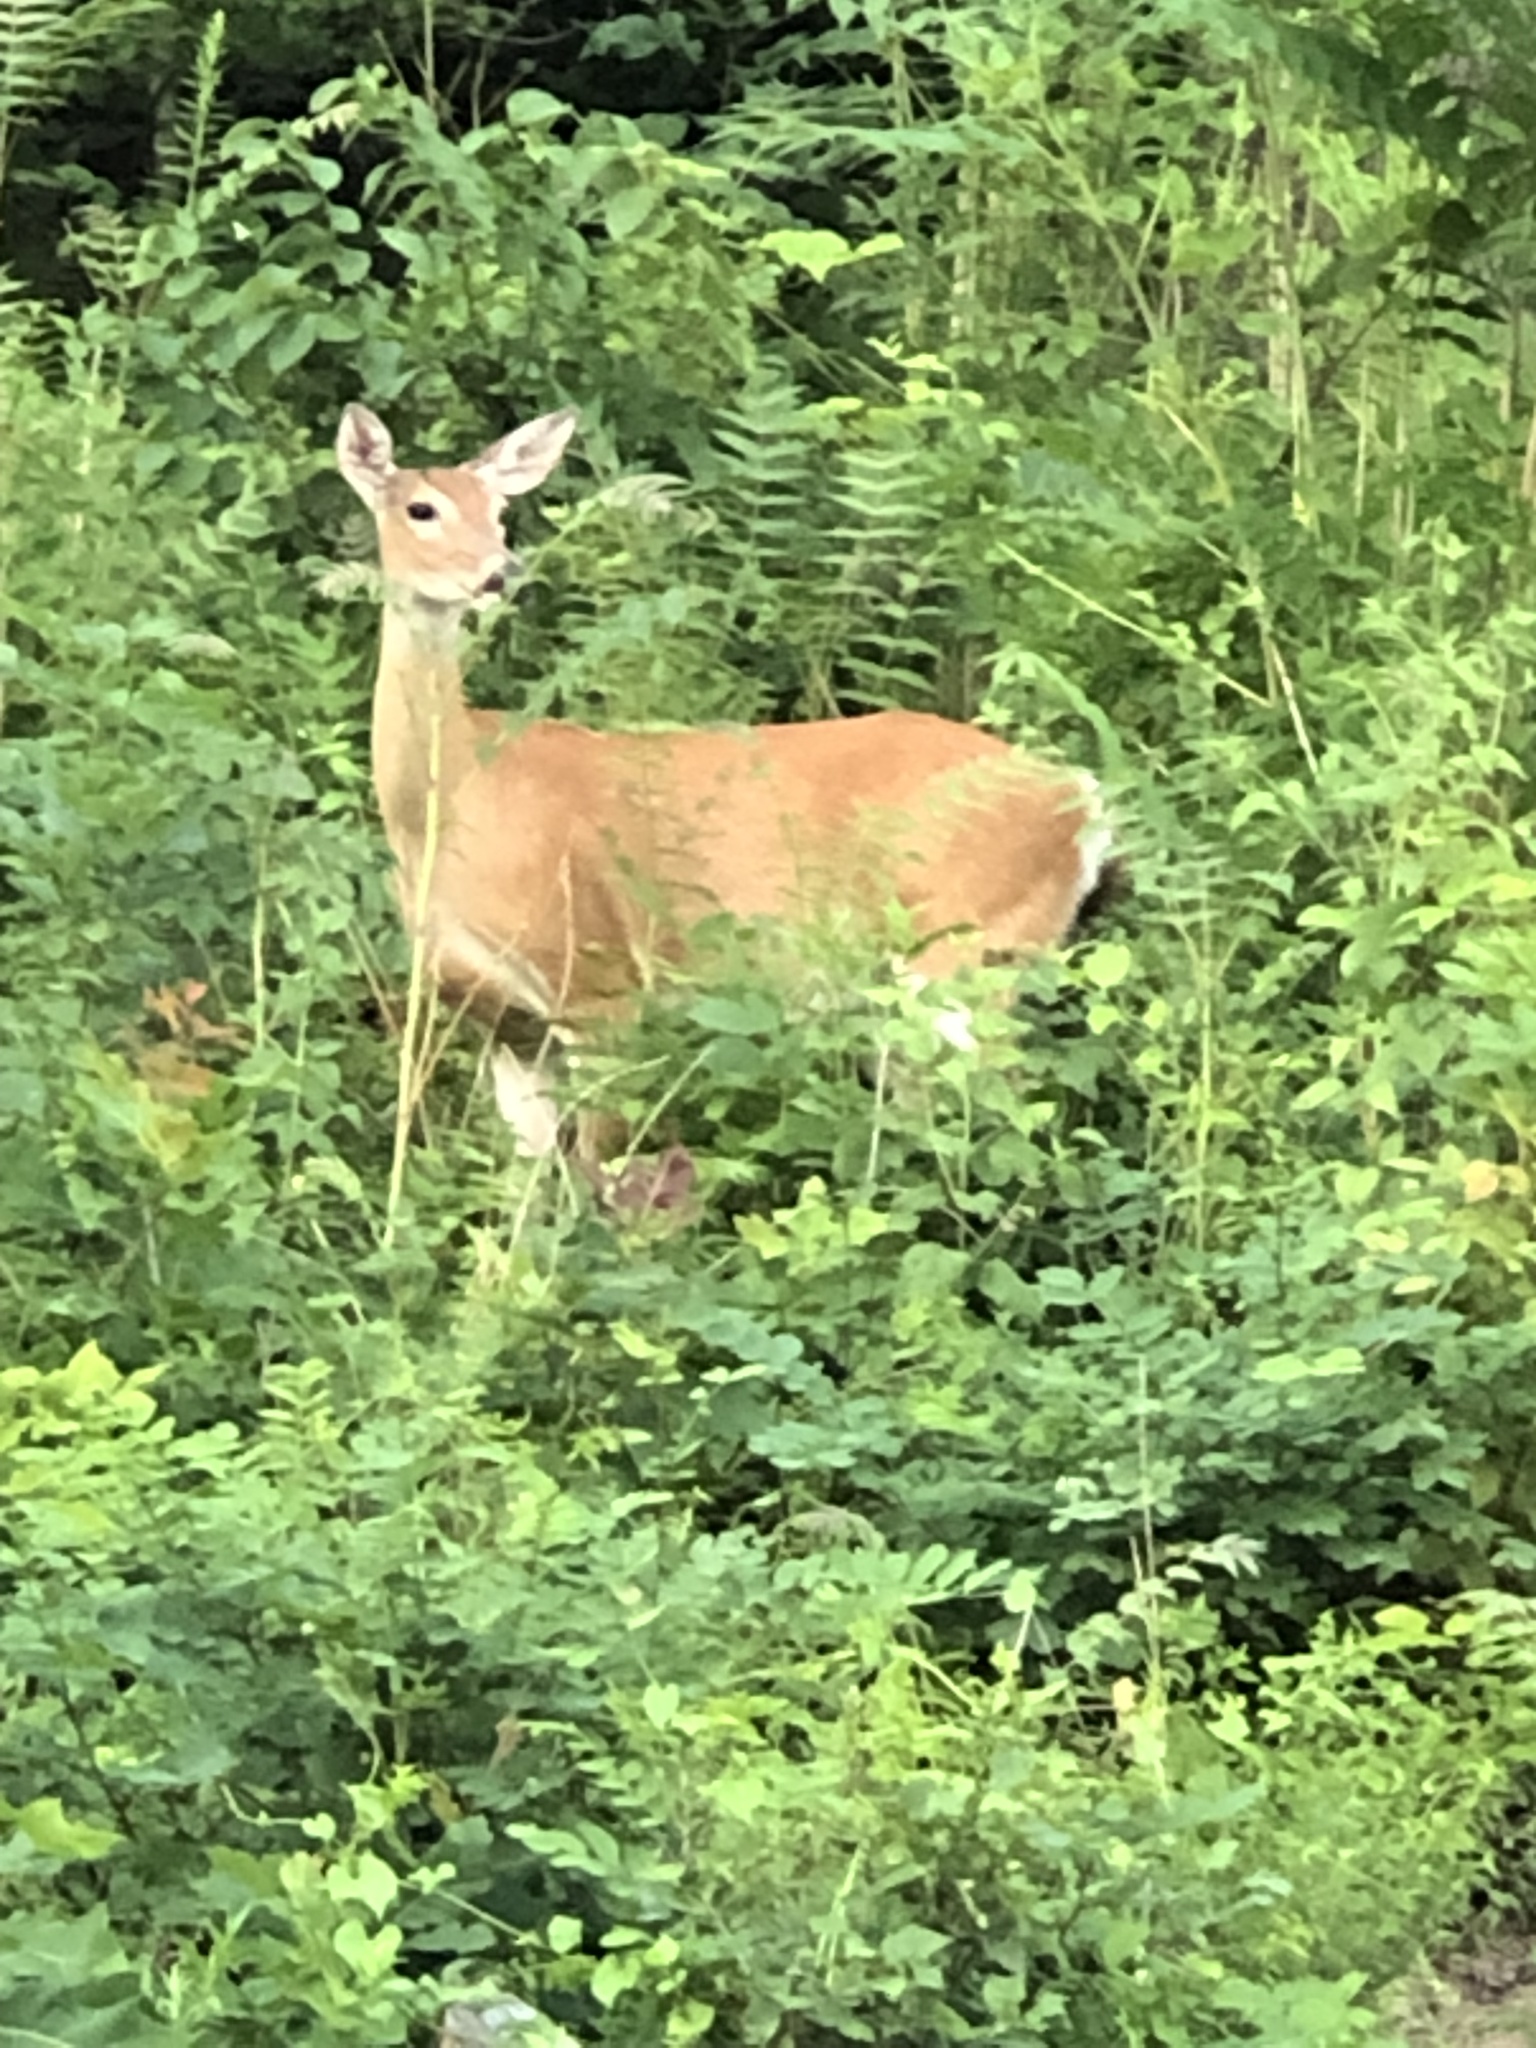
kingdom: Animalia
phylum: Chordata
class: Mammalia
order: Artiodactyla
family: Cervidae
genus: Odocoileus
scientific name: Odocoileus virginianus
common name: White-tailed deer
